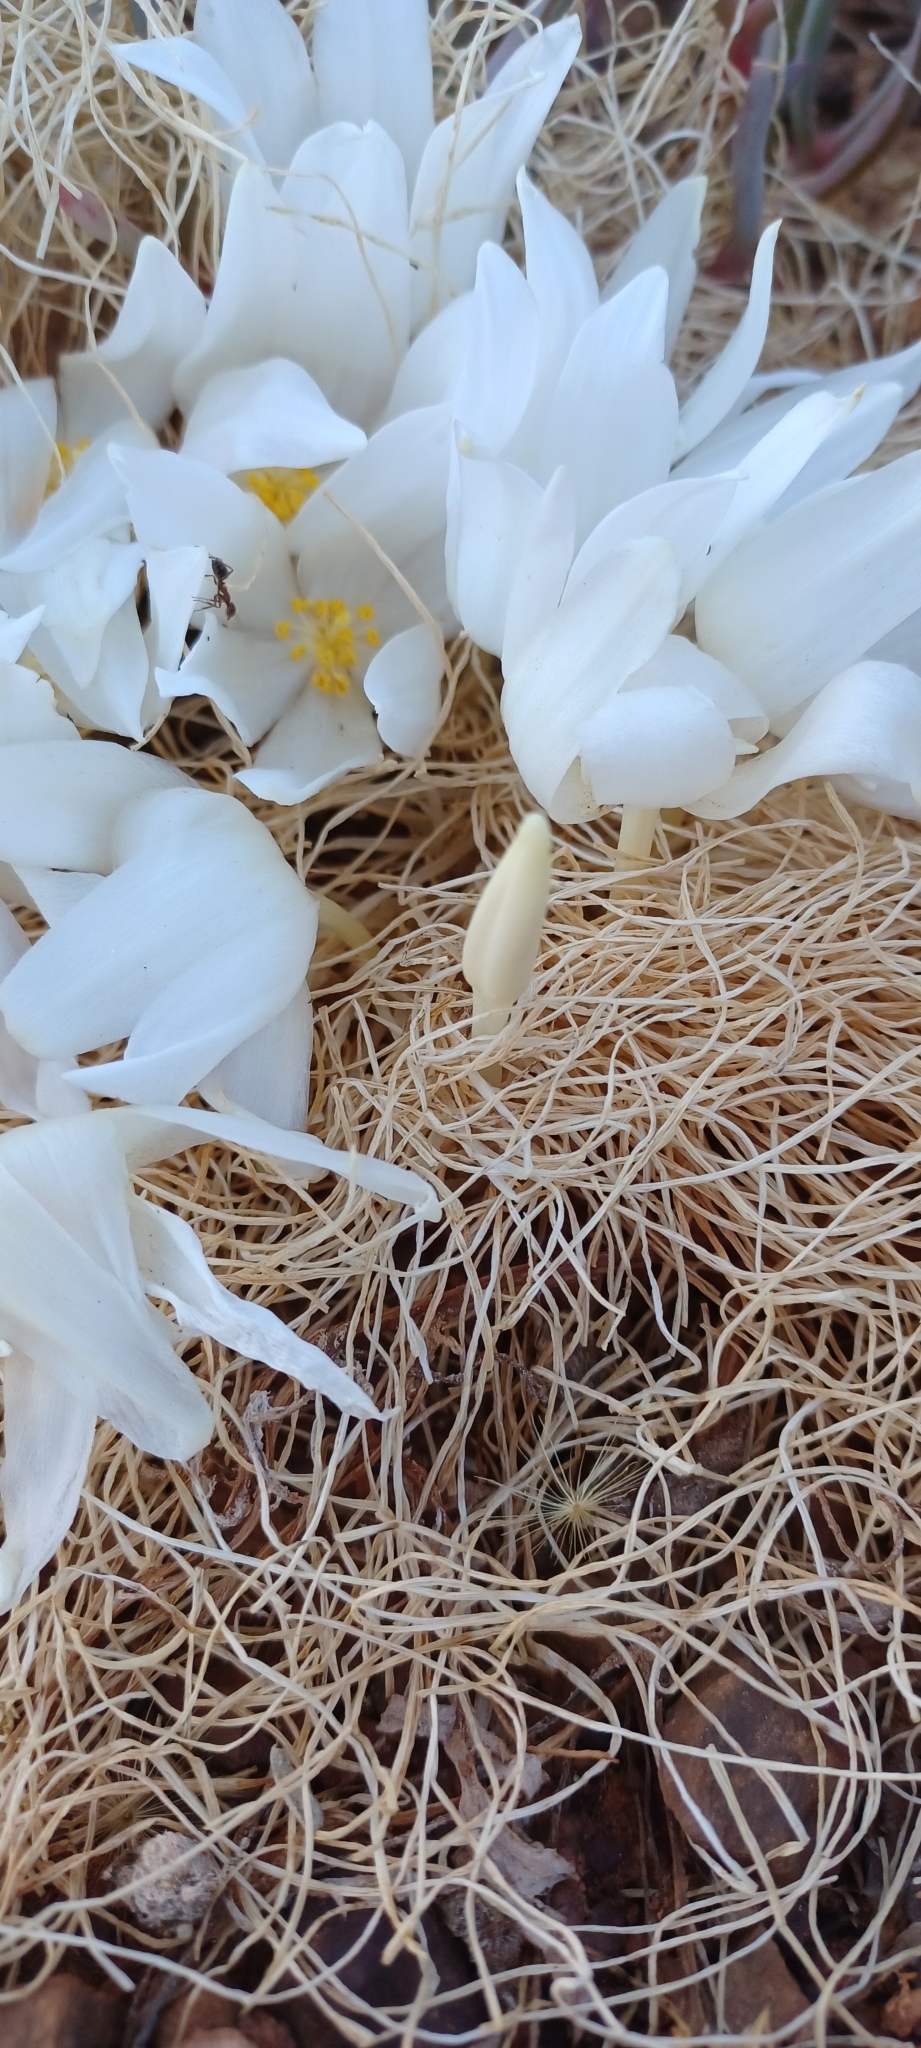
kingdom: Plantae
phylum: Tracheophyta
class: Liliopsida
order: Asparagales
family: Amaryllidaceae
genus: Gethyllis
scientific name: Gethyllis campanulata
